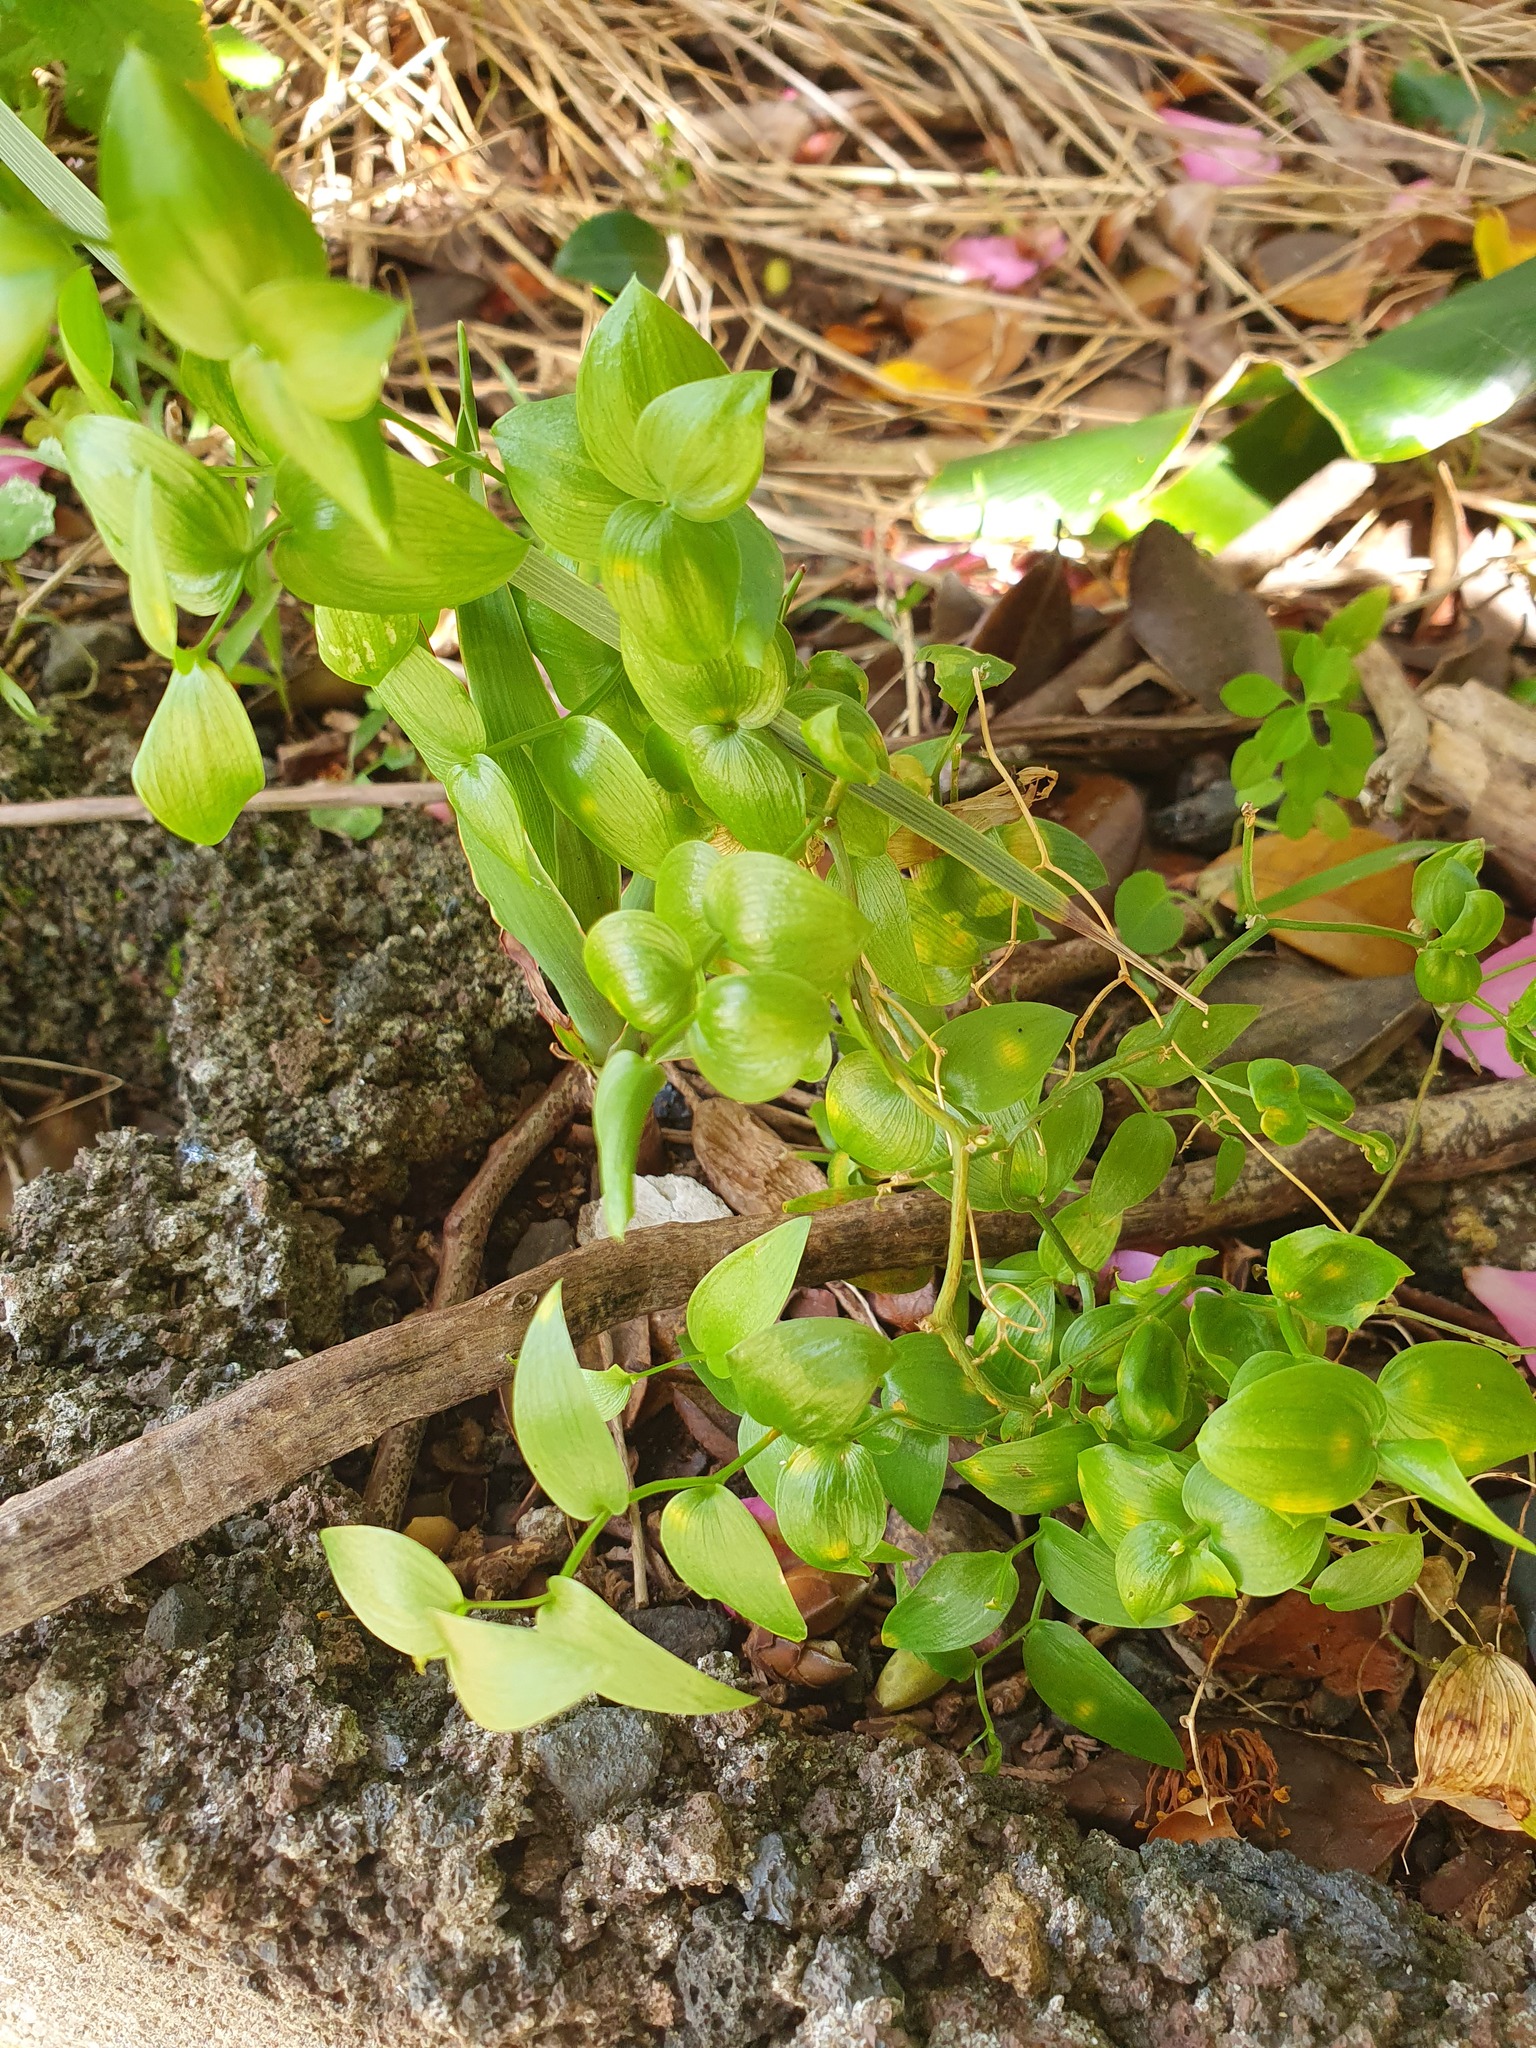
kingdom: Plantae
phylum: Tracheophyta
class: Liliopsida
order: Asparagales
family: Asparagaceae
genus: Asparagus
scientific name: Asparagus asparagoides
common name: African asparagus fern
